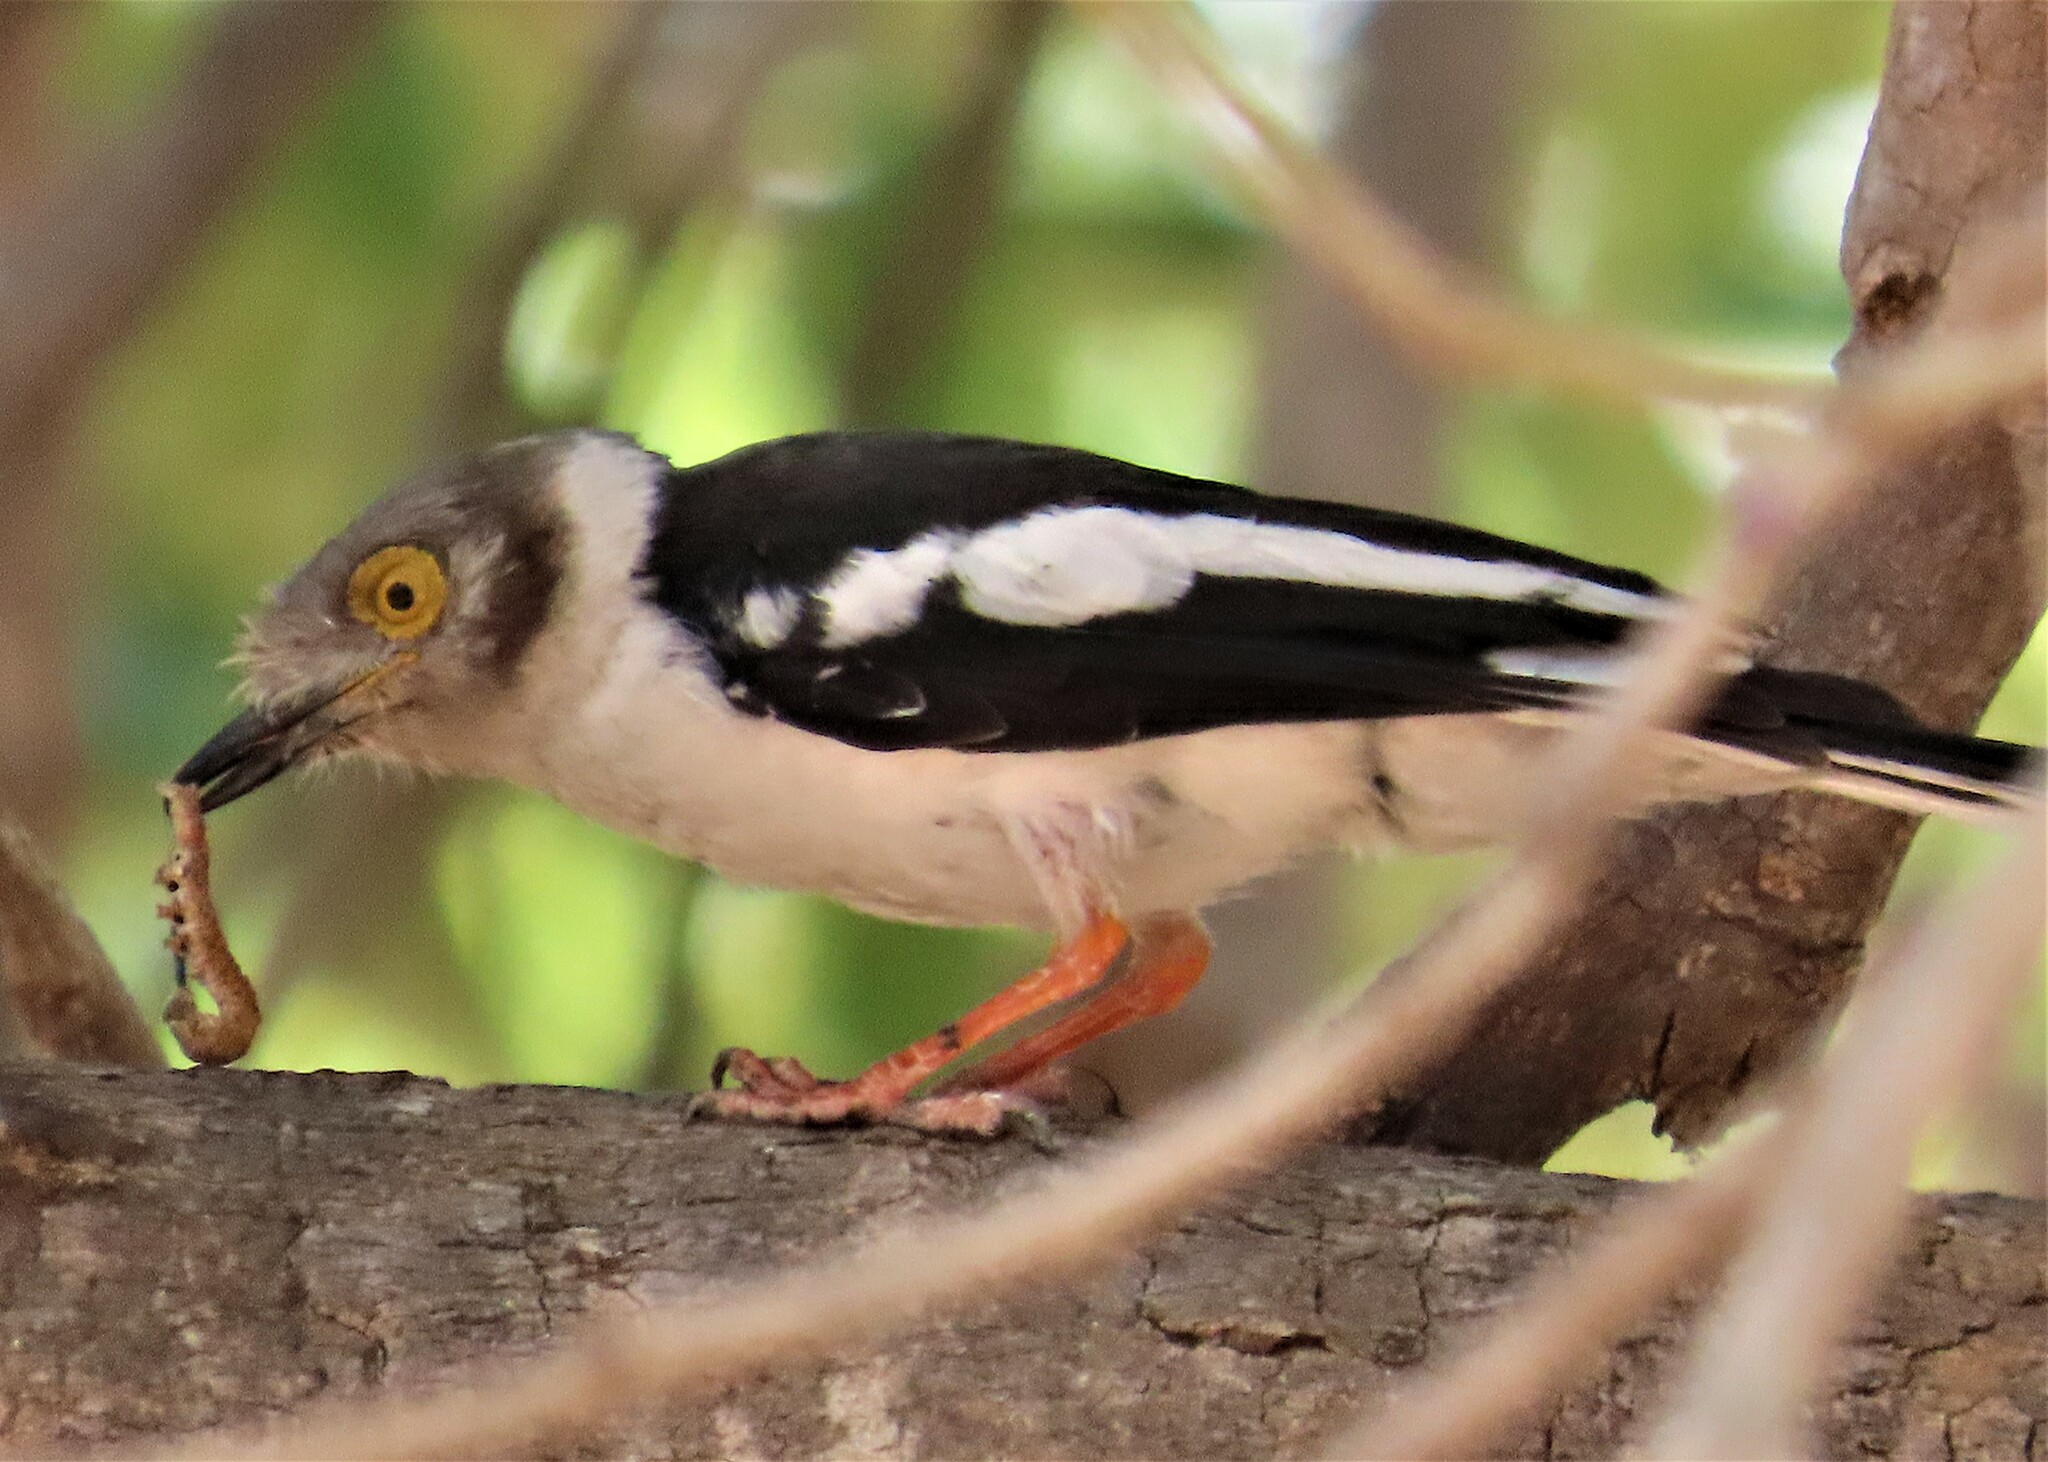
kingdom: Animalia
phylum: Chordata
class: Aves
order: Passeriformes
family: Prionopidae
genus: Prionops
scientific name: Prionops plumatus
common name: White-crested helmetshrike
